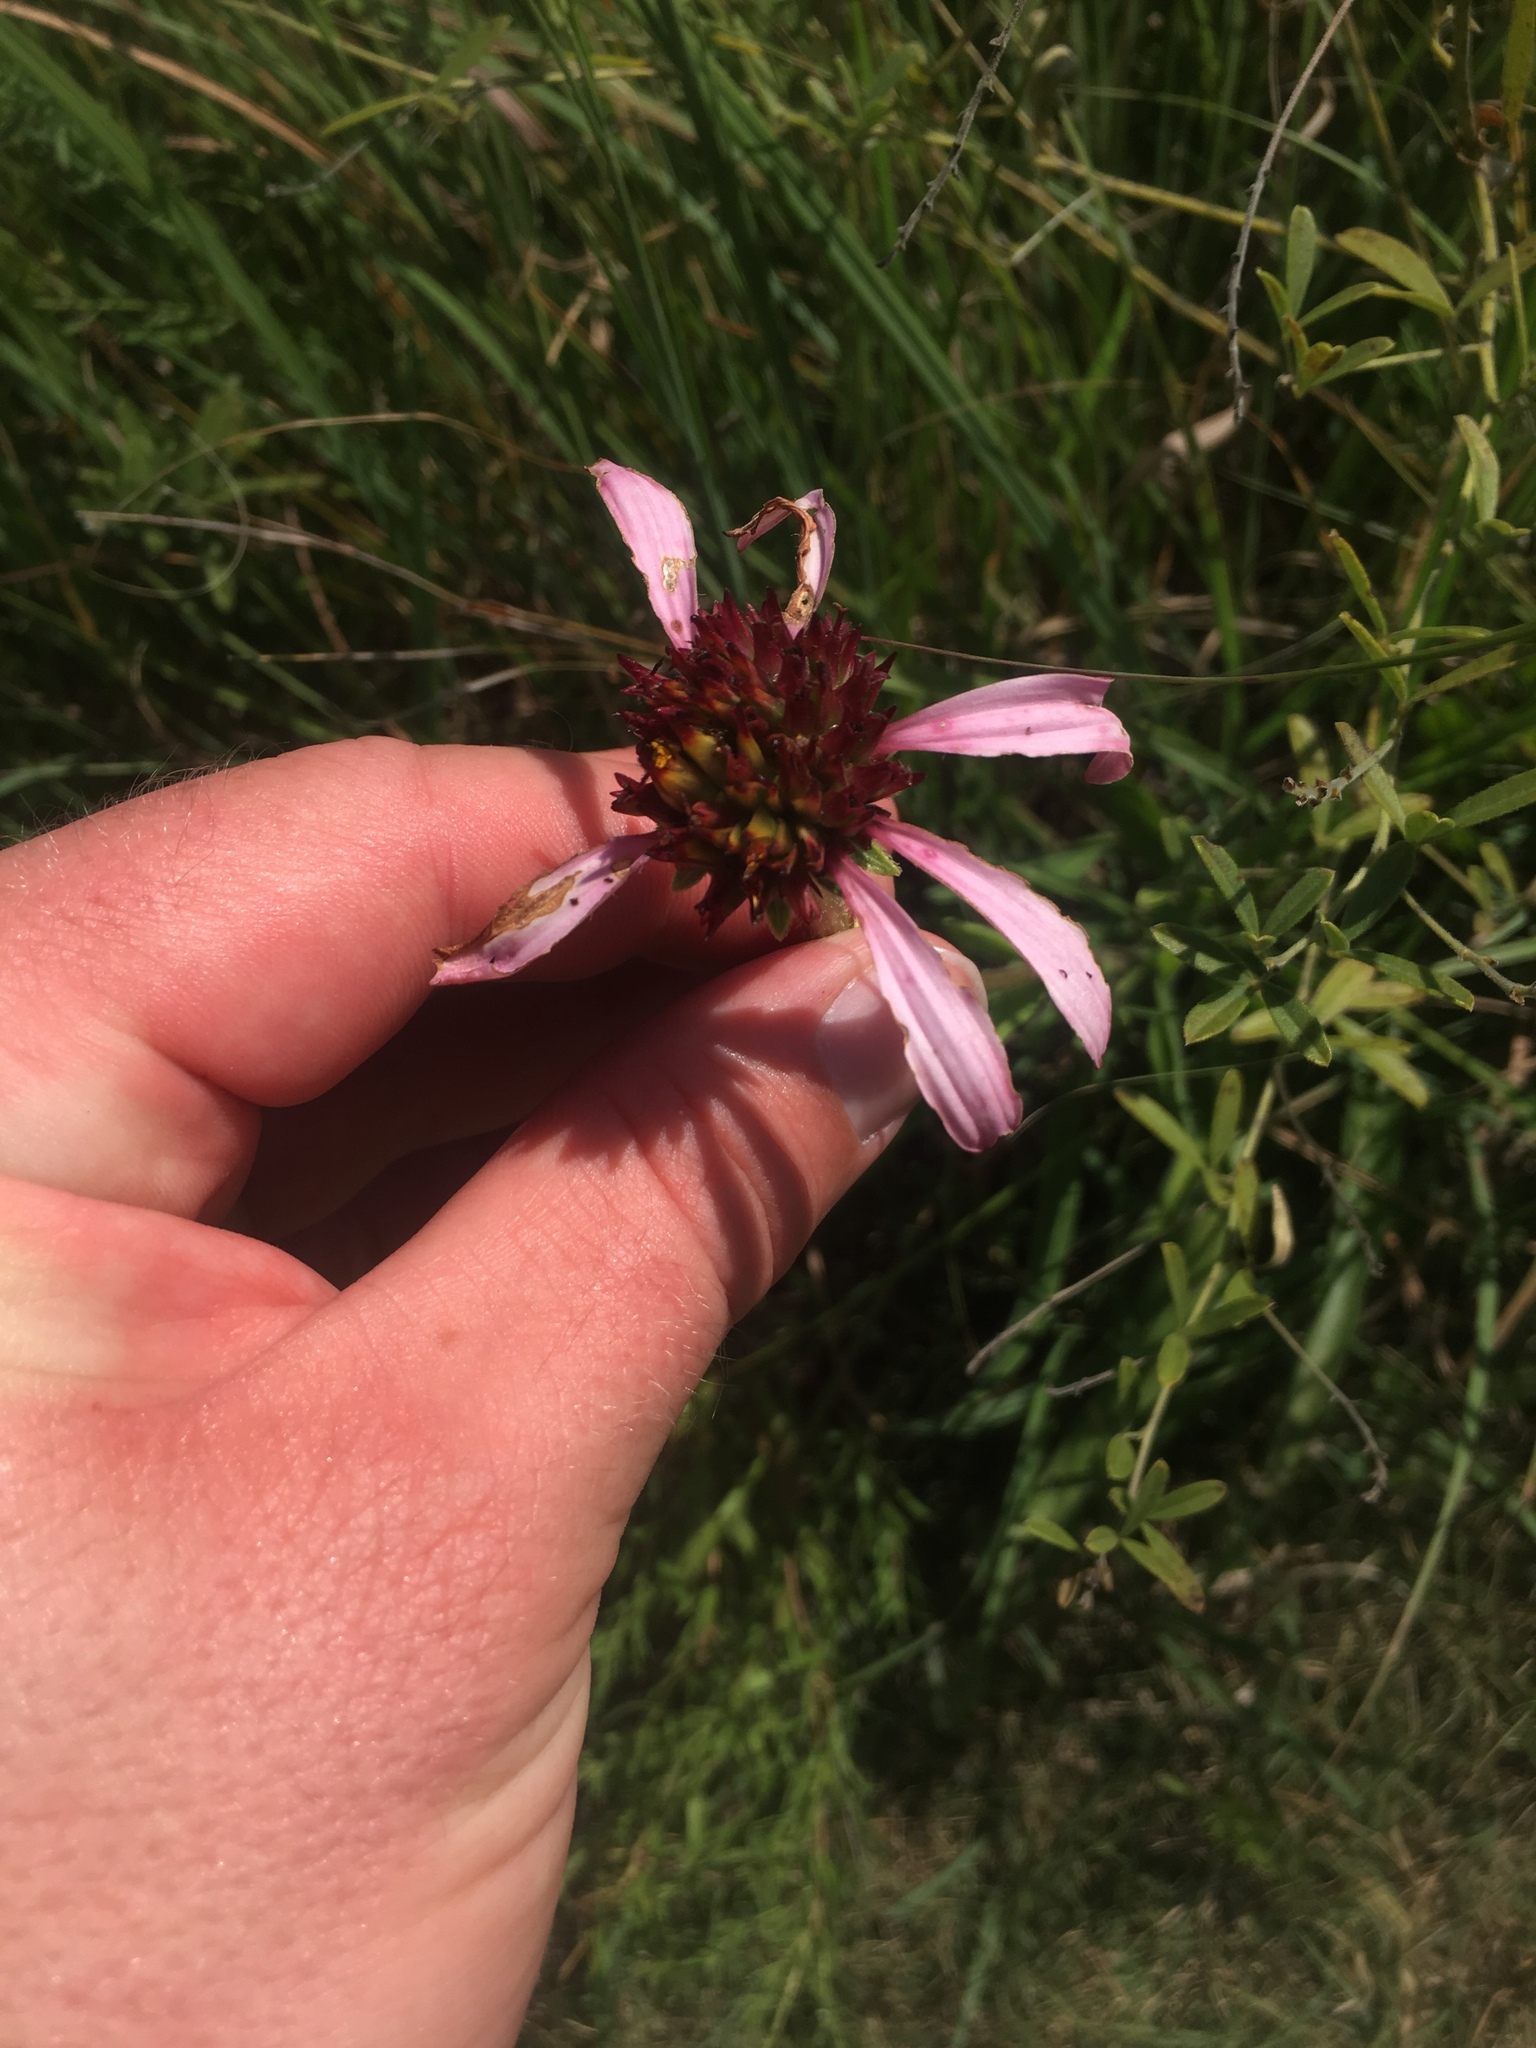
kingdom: Plantae
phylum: Tracheophyta
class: Magnoliopsida
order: Asterales
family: Asteraceae
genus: Echinacea
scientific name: Echinacea angustifolia
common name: Black-sampson echinacea
